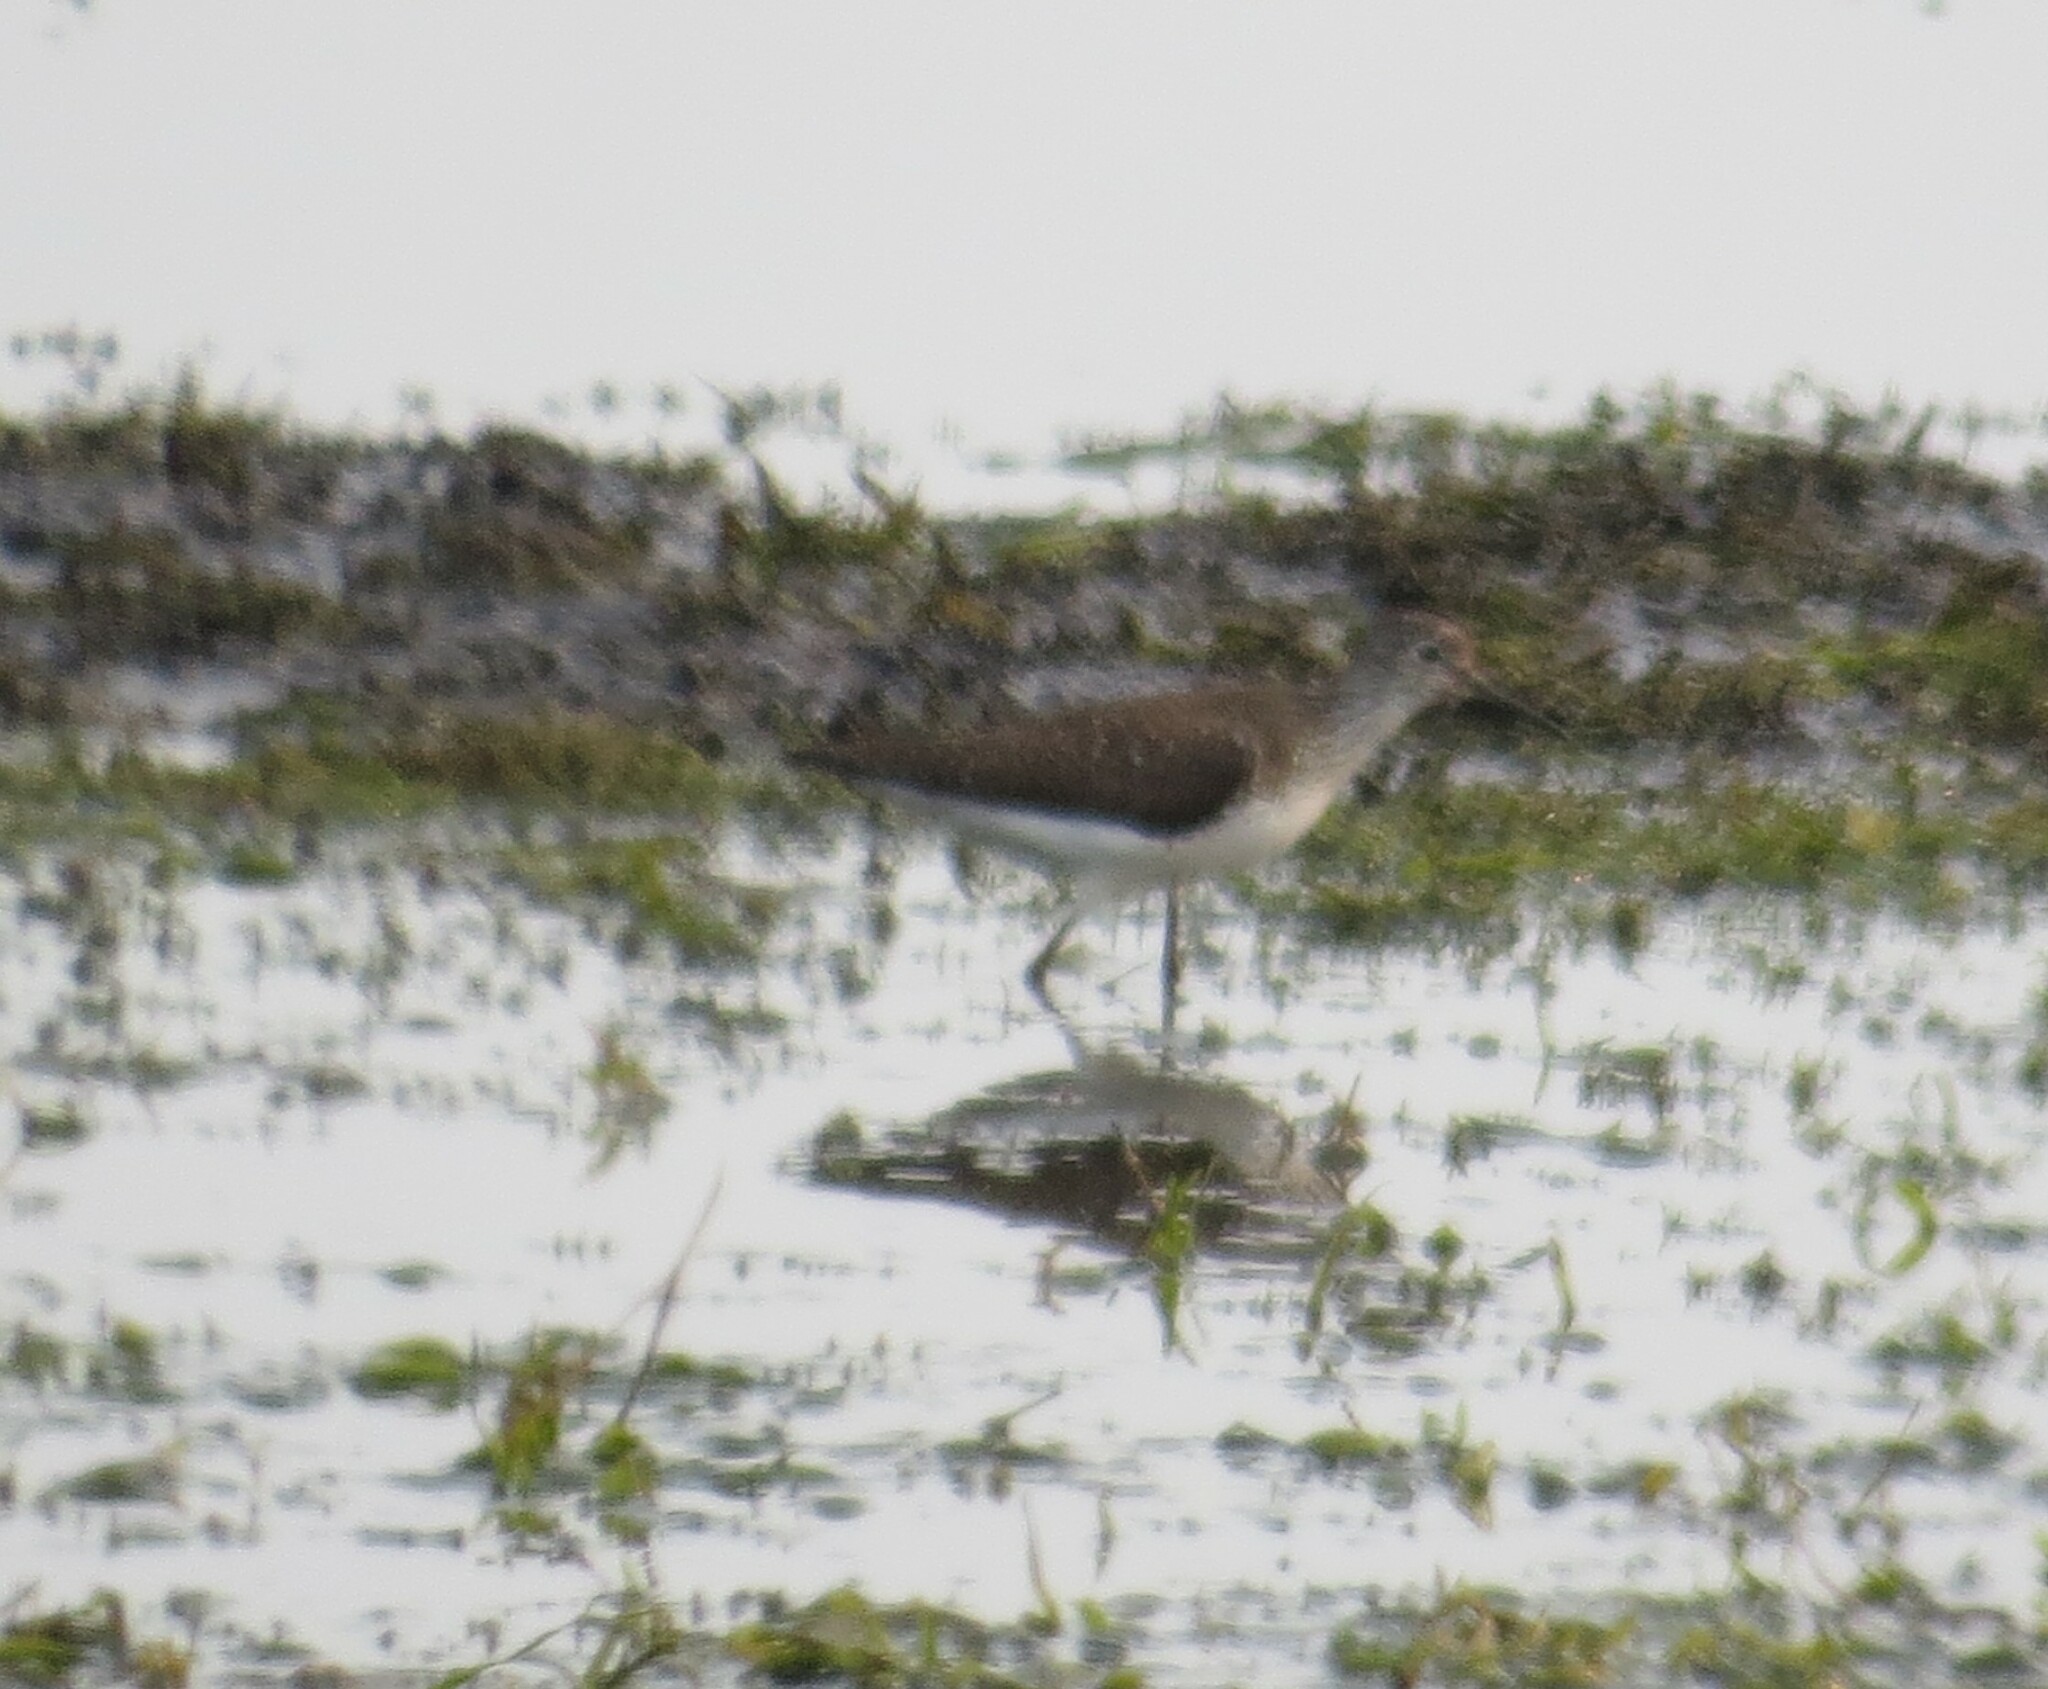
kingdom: Animalia
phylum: Chordata
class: Aves
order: Charadriiformes
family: Scolopacidae
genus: Tringa
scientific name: Tringa solitaria
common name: Solitary sandpiper
